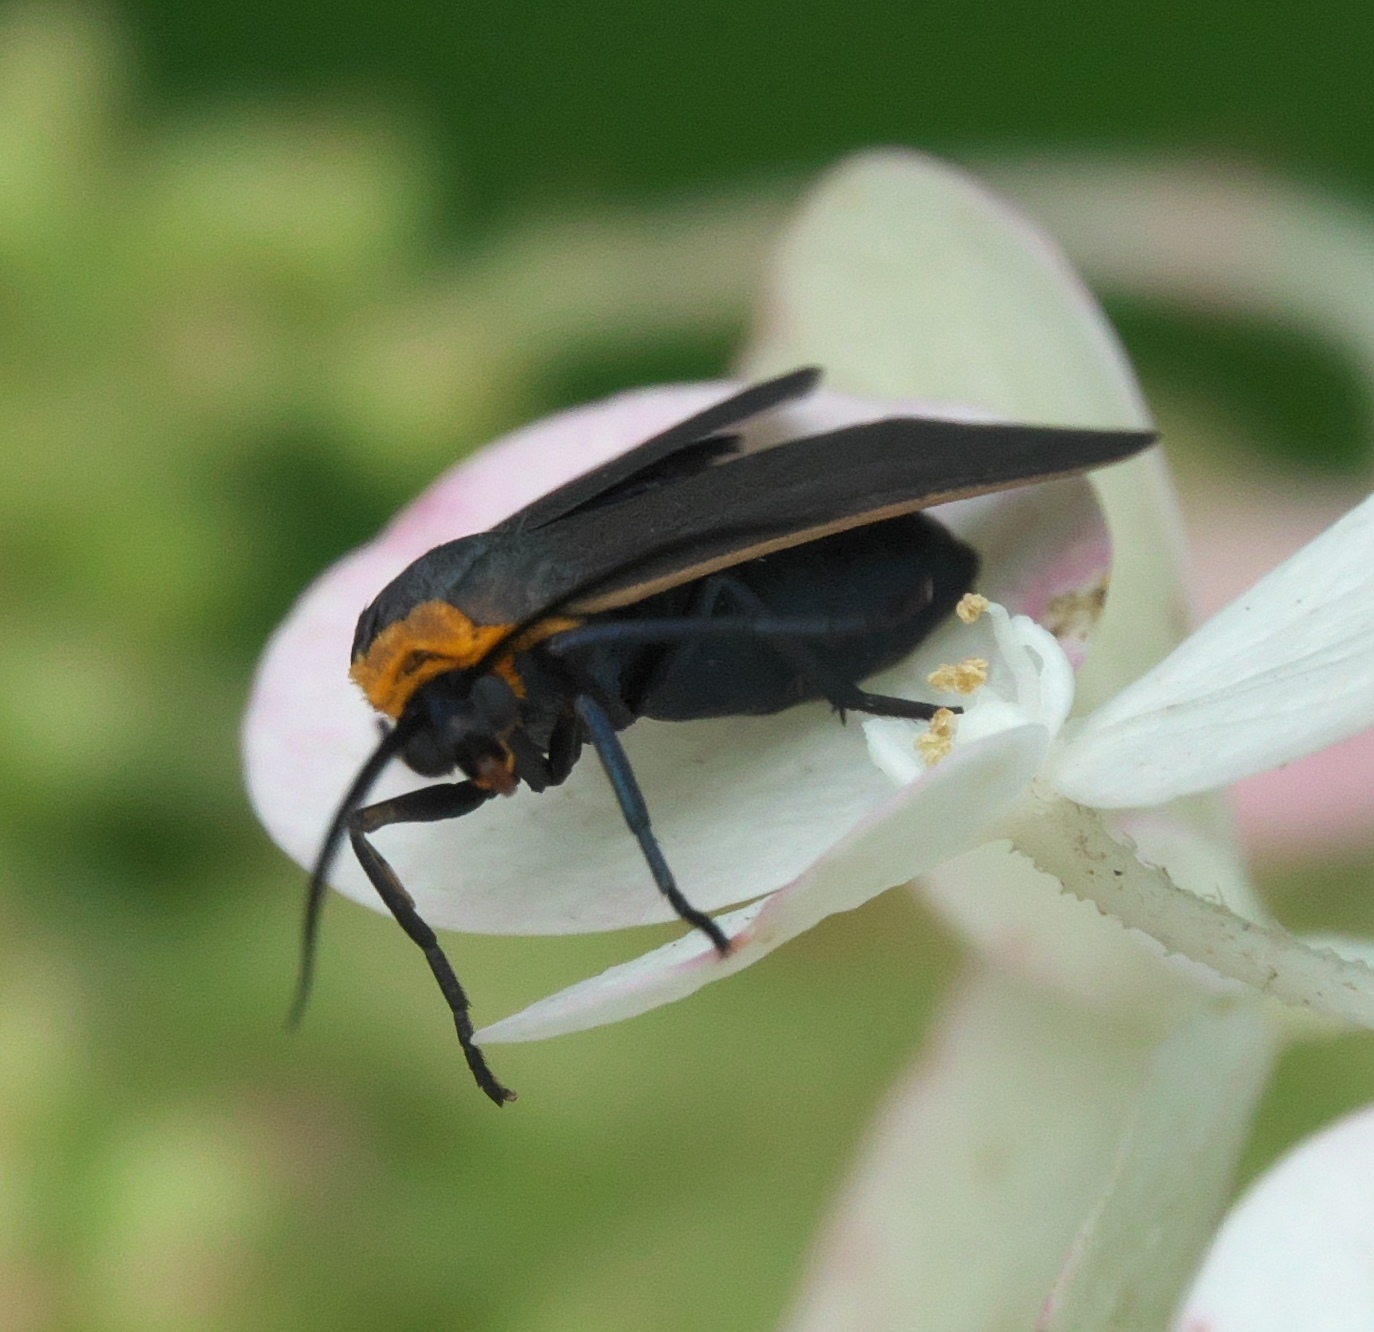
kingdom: Animalia
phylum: Arthropoda
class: Insecta
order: Lepidoptera
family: Erebidae
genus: Cisseps
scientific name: Cisseps fulvicollis
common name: Yellow-collared scape moth
